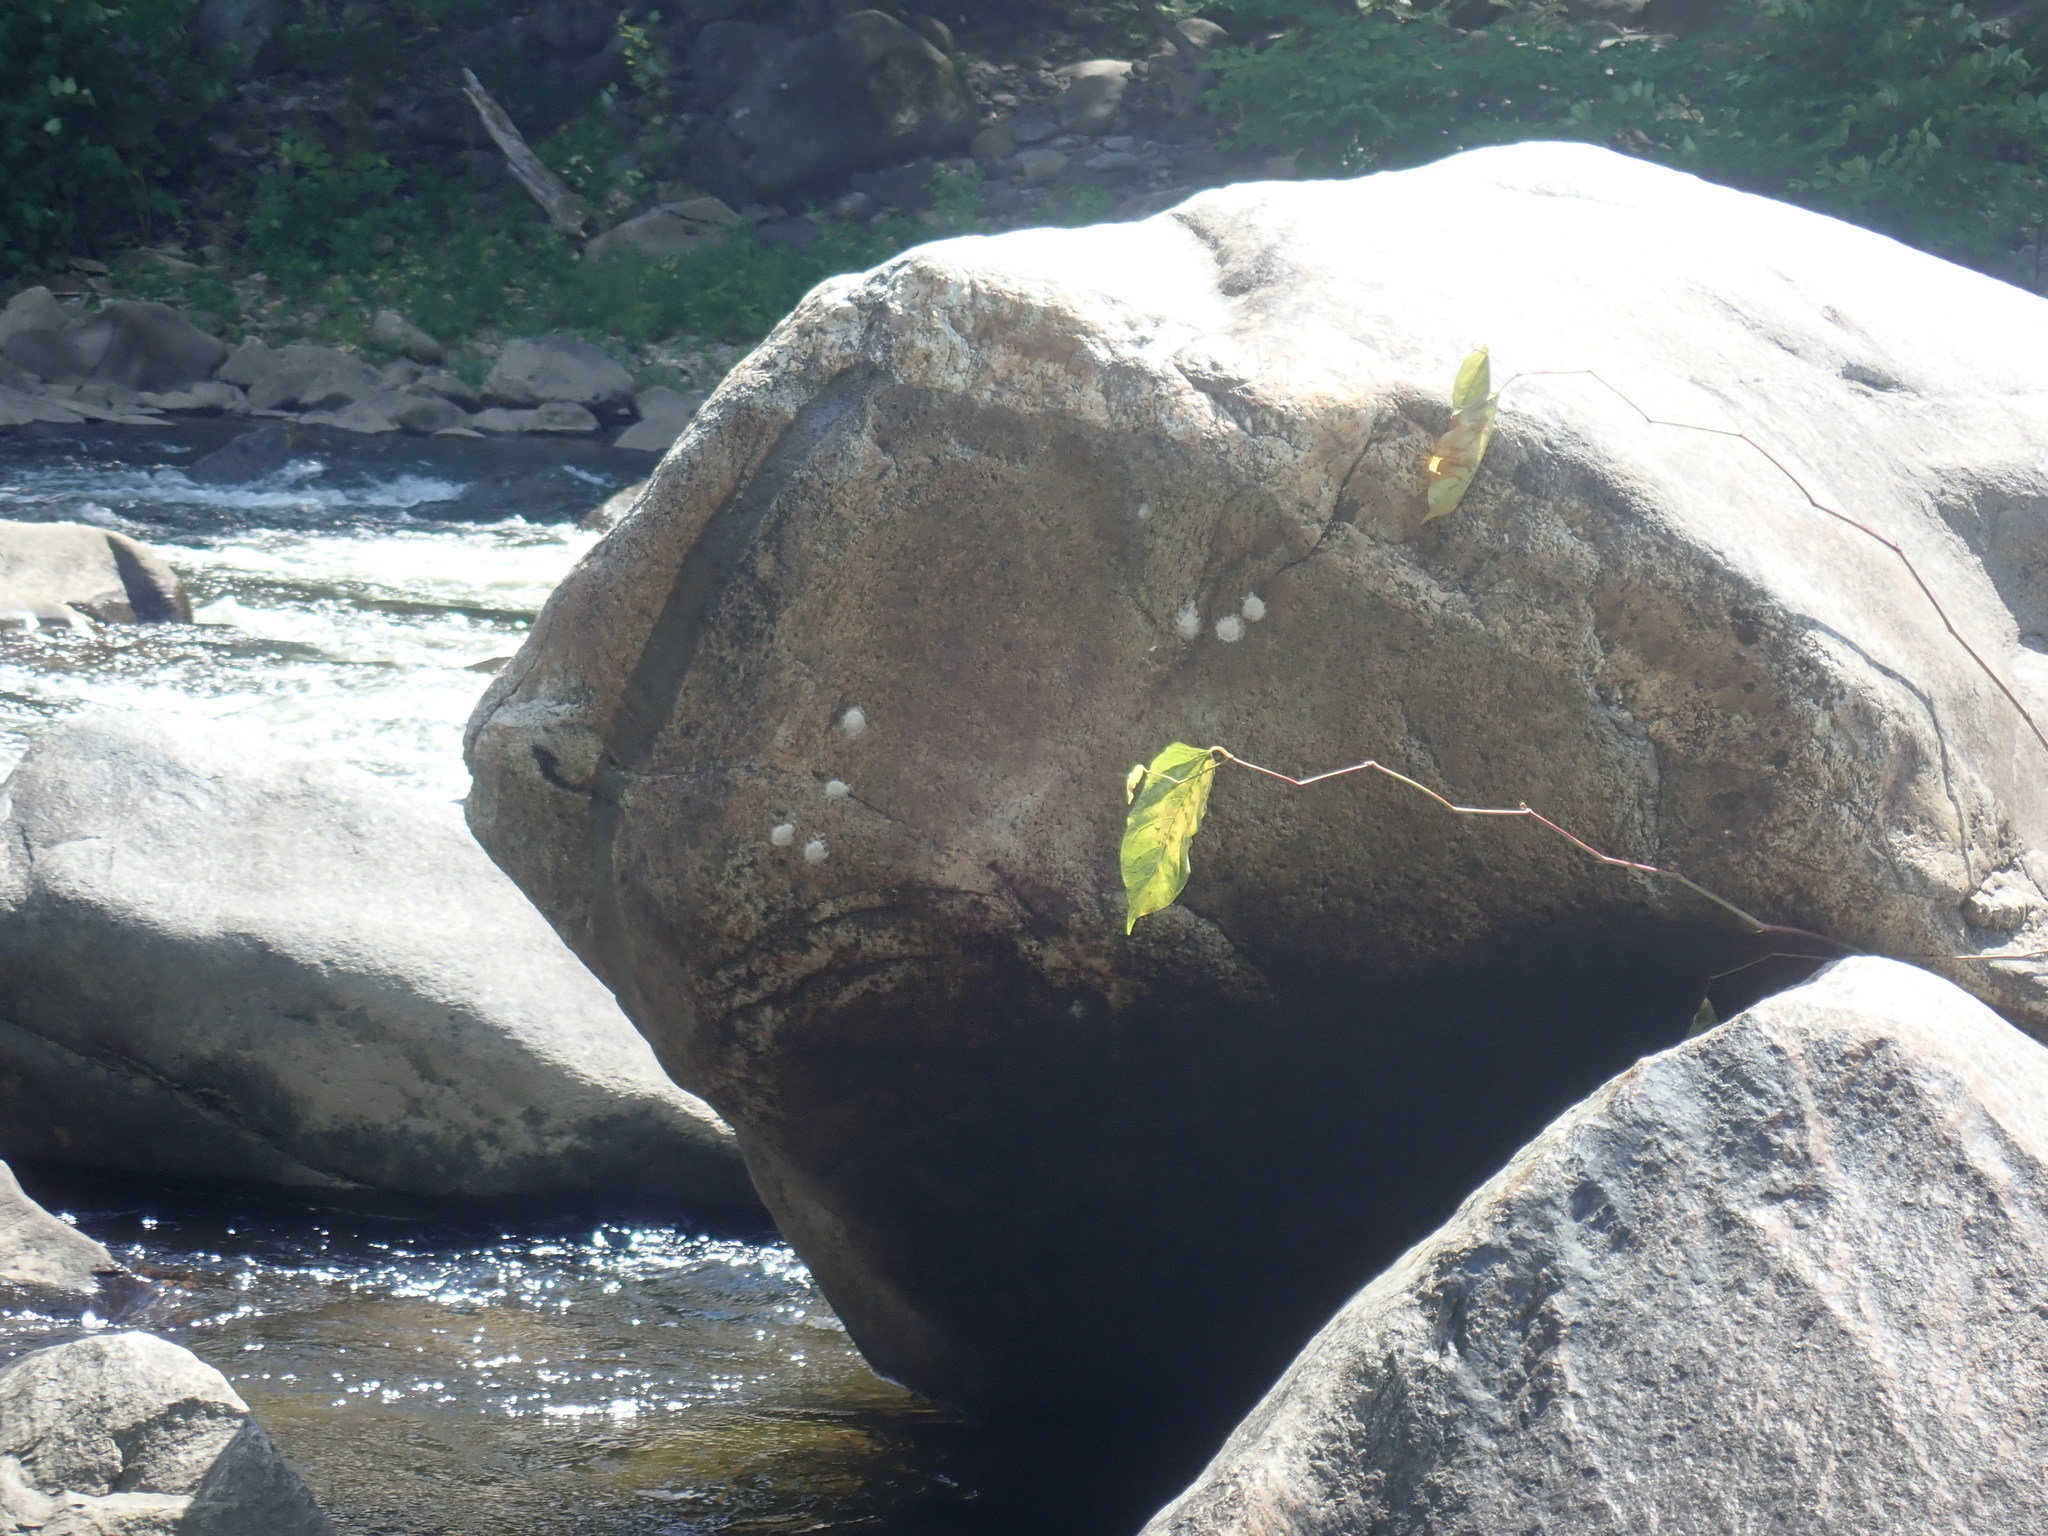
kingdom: Animalia
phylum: Arthropoda
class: Insecta
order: Megaloptera
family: Corydalidae
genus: Corydalus
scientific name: Corydalus cornutus
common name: Dobsonfly
